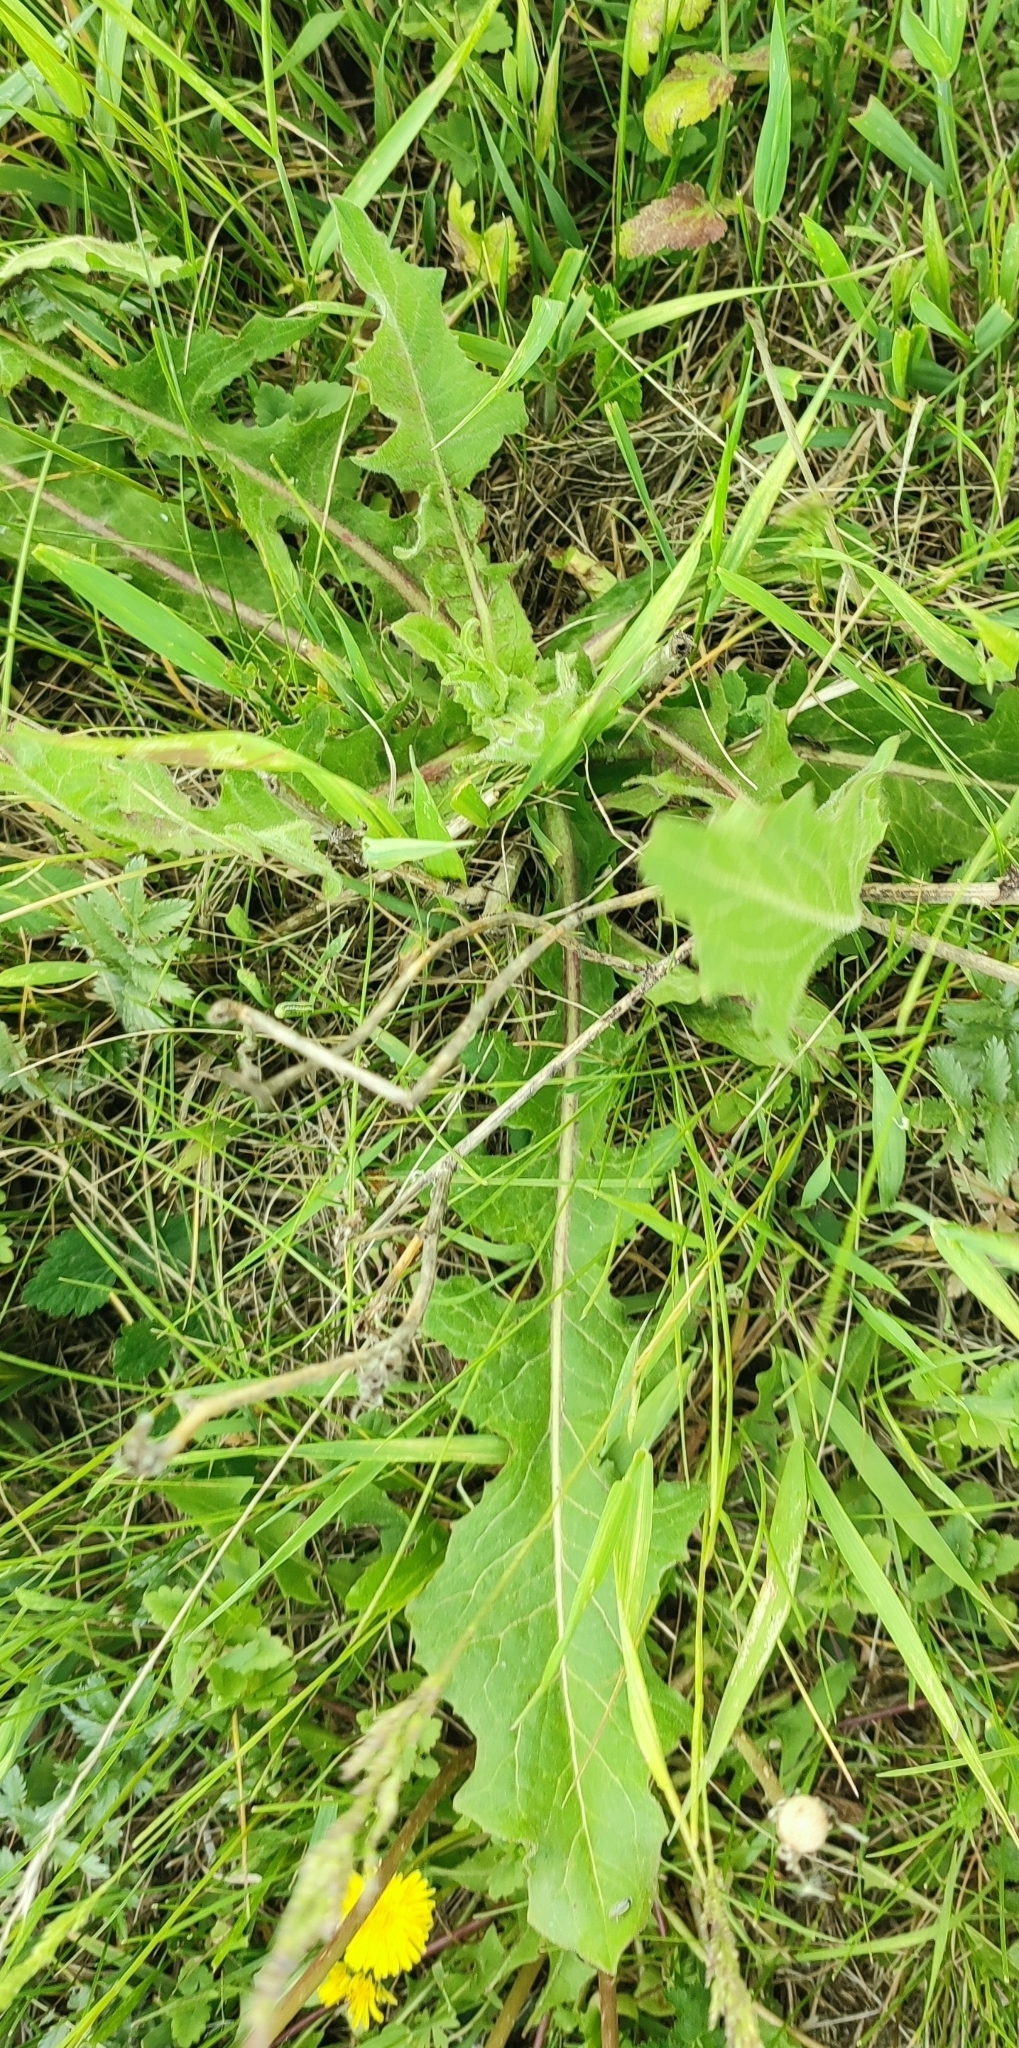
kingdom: Plantae
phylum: Tracheophyta
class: Magnoliopsida
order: Asterales
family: Asteraceae
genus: Cichorium
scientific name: Cichorium intybus
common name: Chicory
